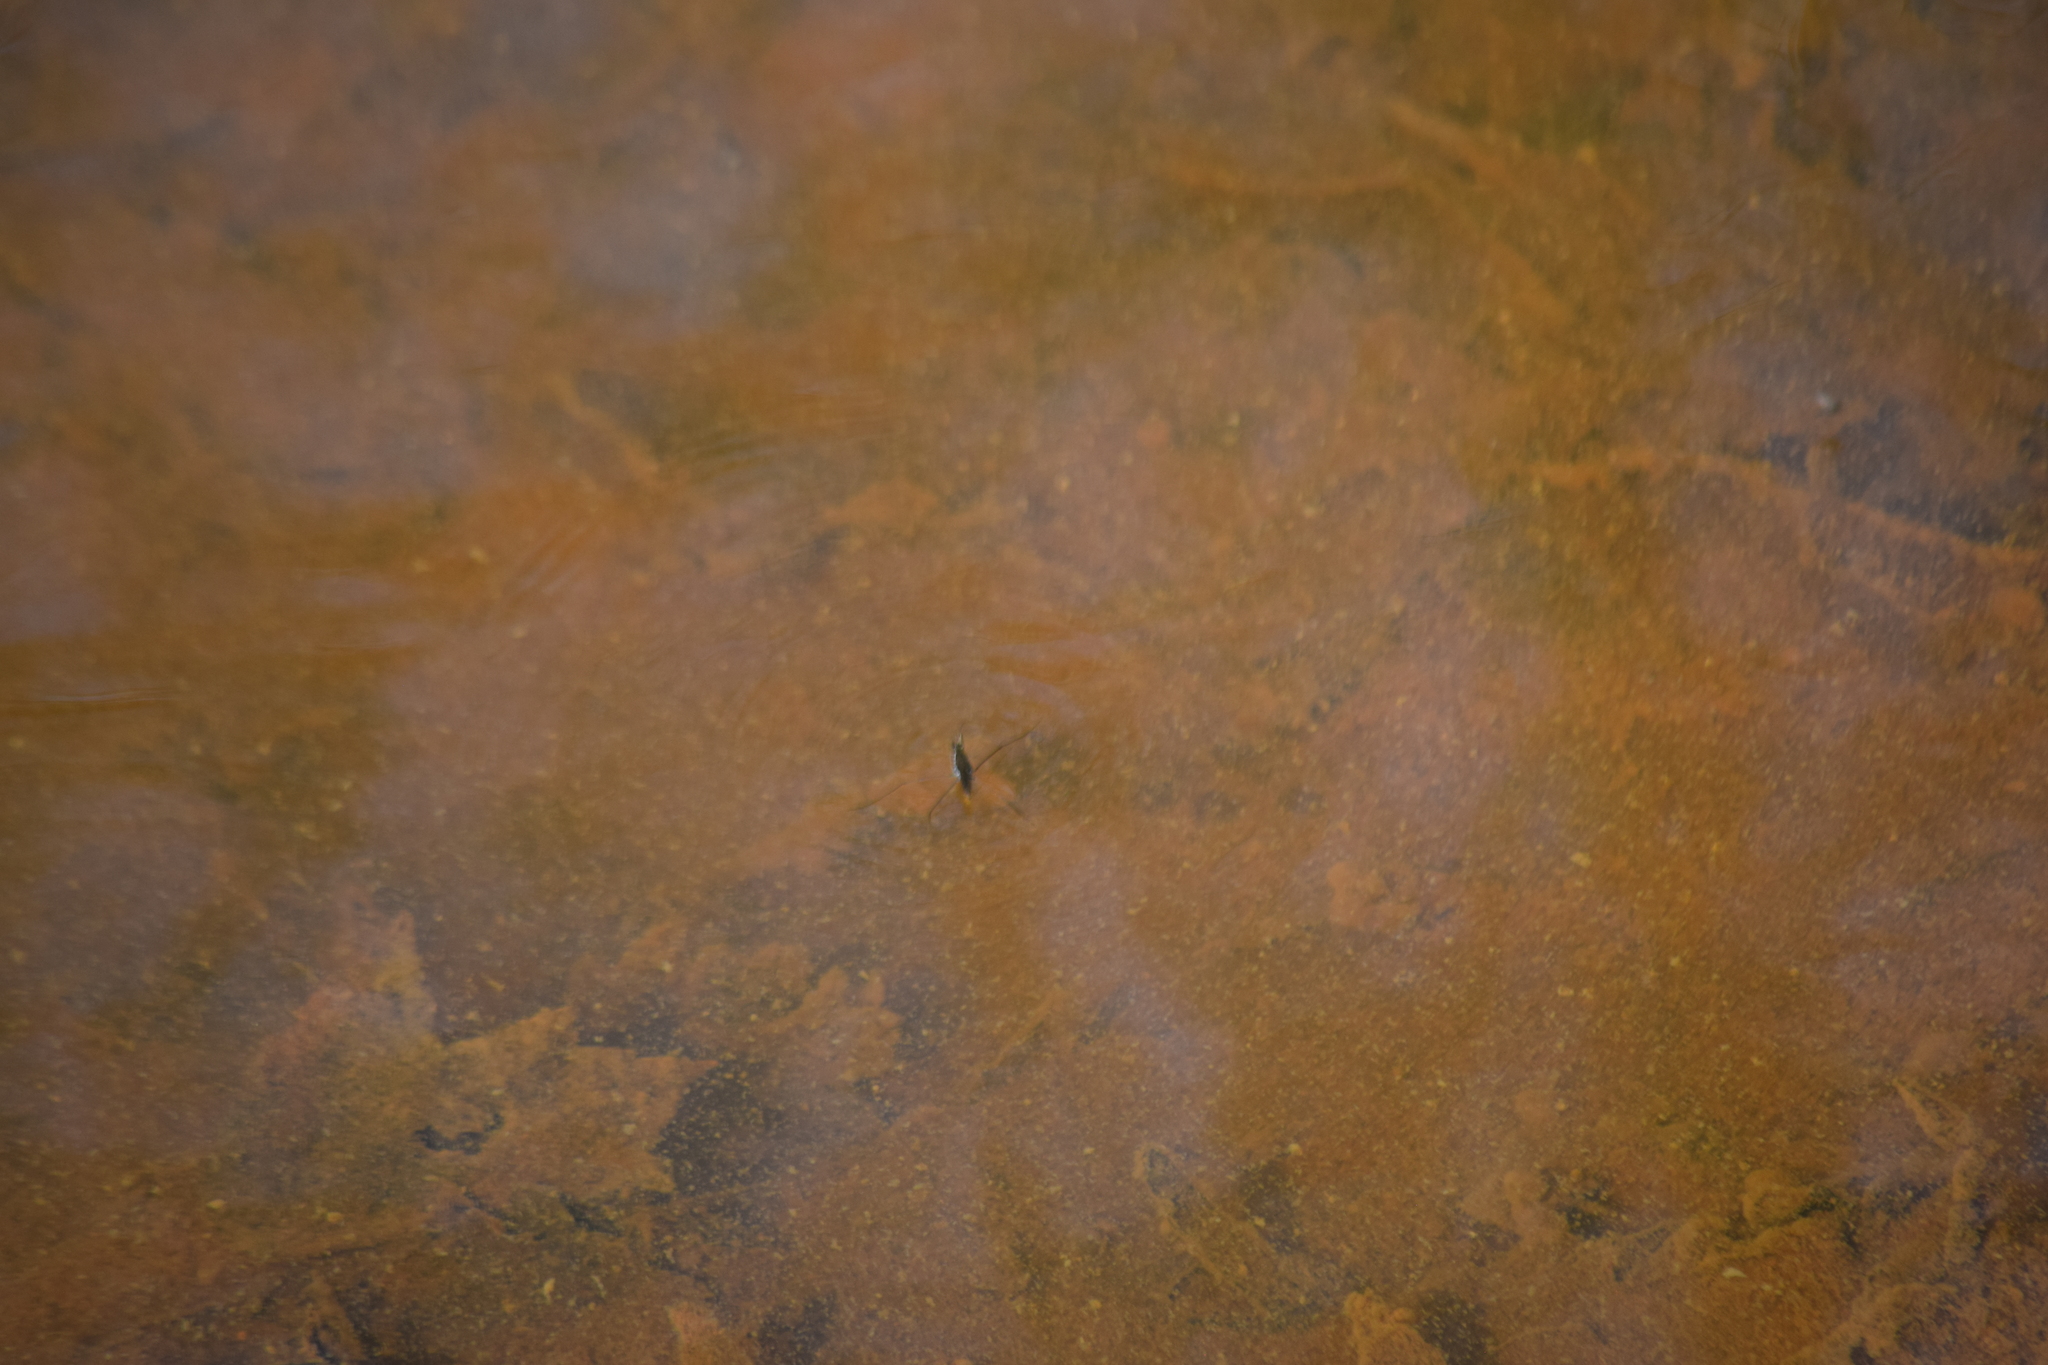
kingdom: Animalia
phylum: Arthropoda
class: Insecta
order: Hemiptera
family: Gerridae
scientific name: Gerridae
